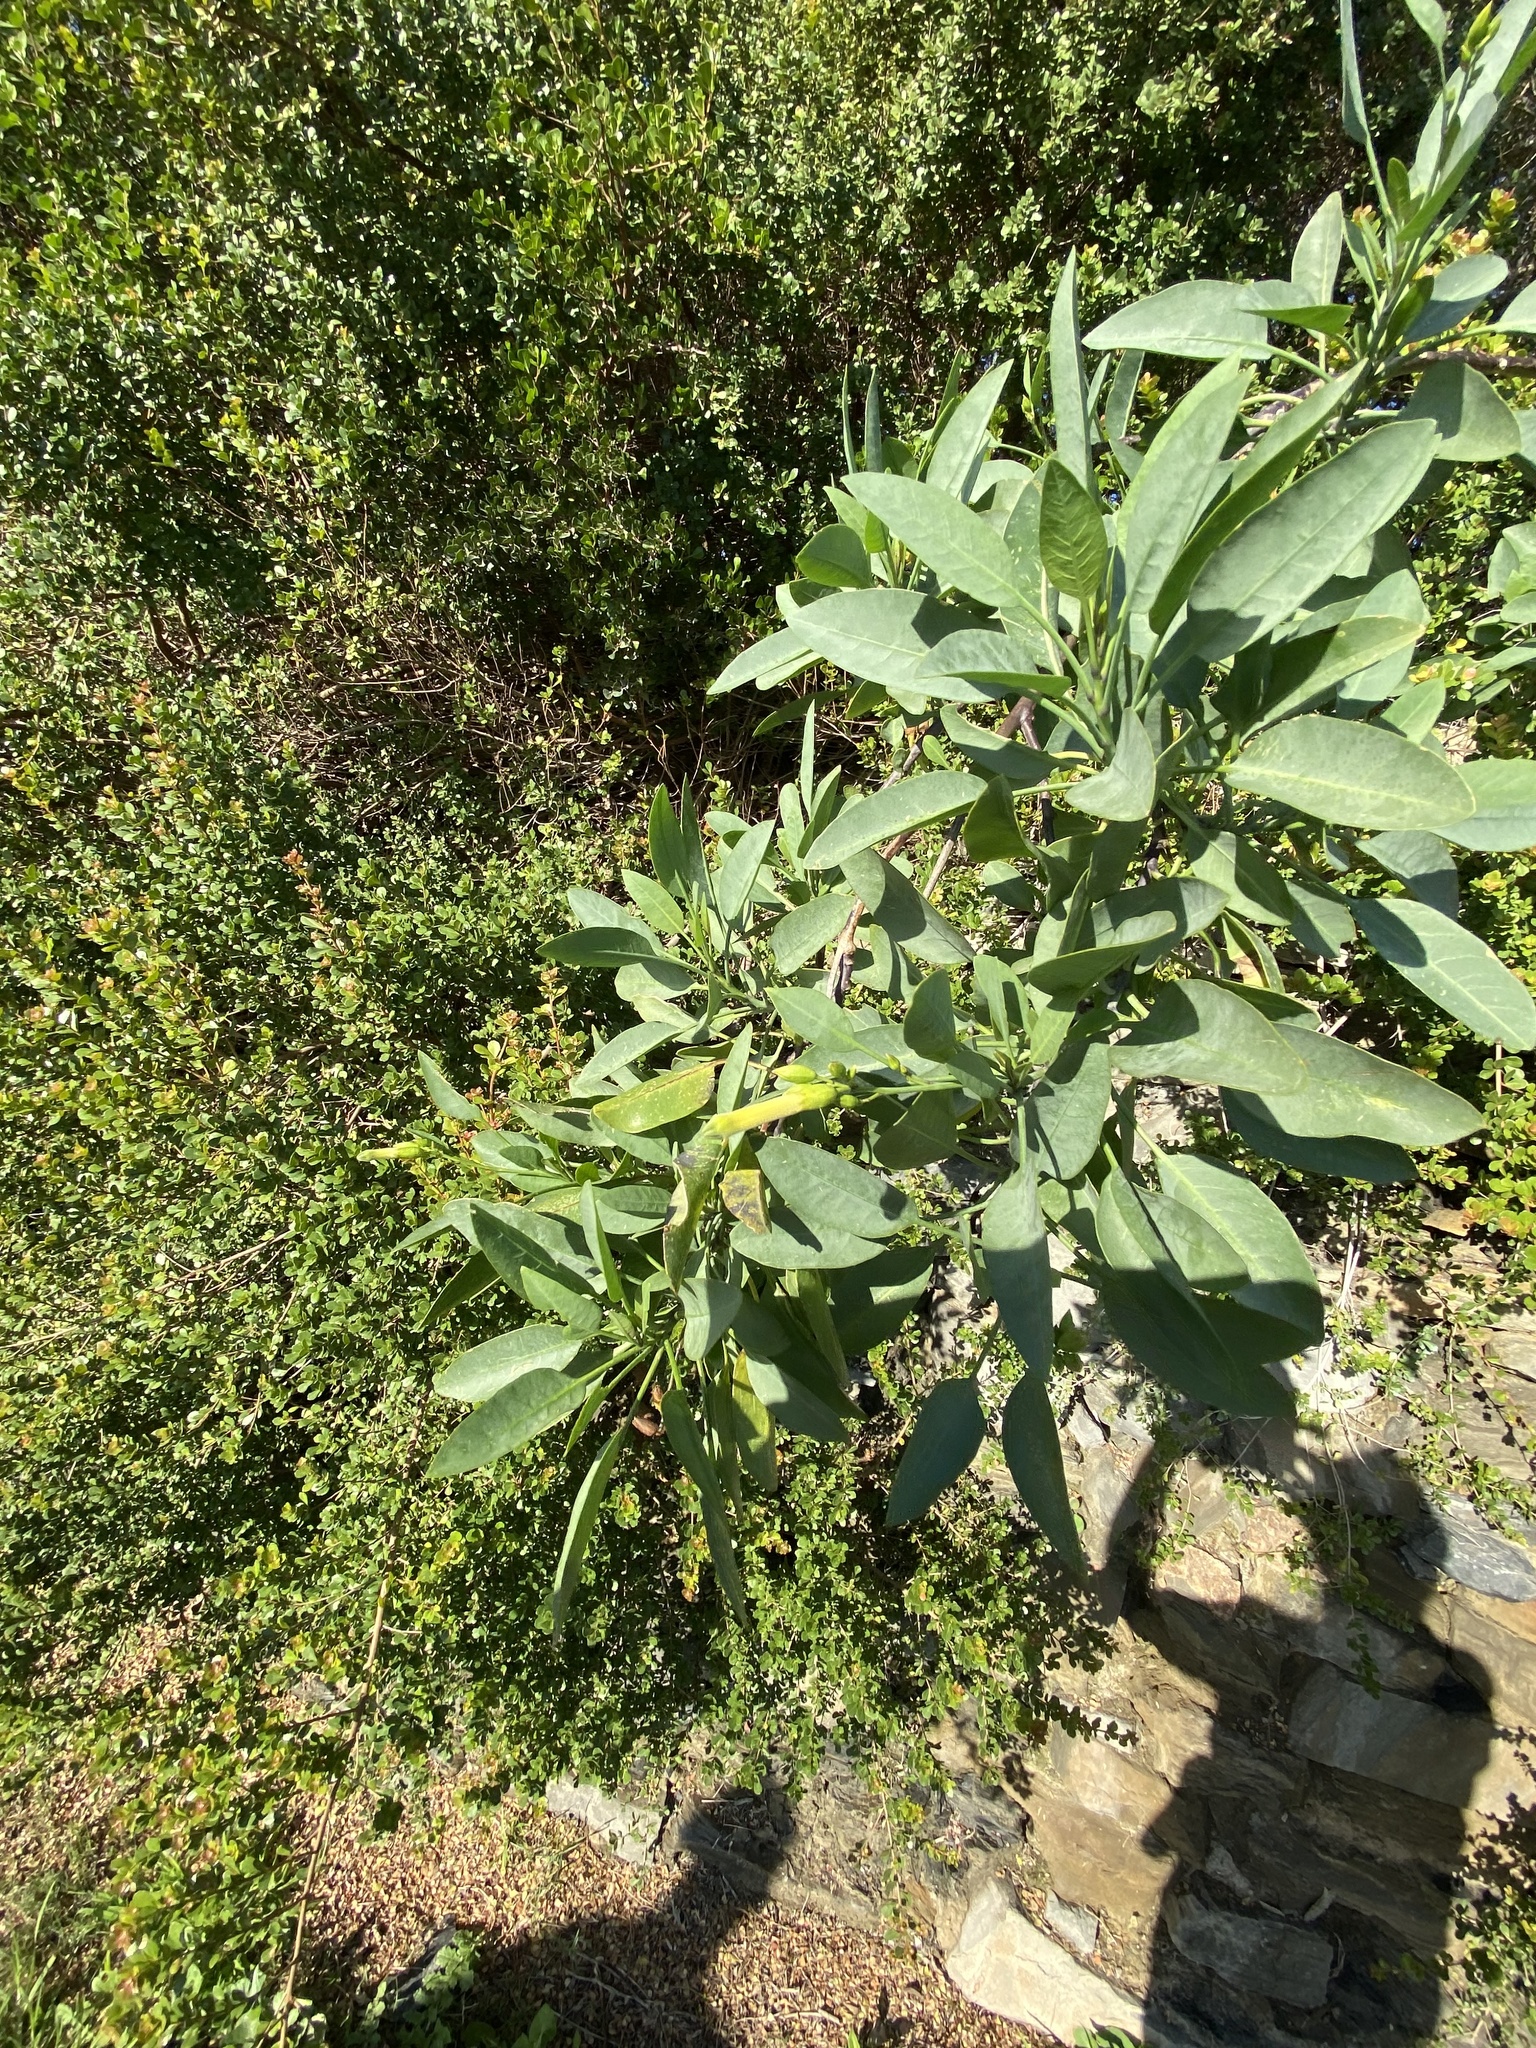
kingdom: Plantae
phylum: Tracheophyta
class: Magnoliopsida
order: Solanales
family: Solanaceae
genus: Nicotiana
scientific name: Nicotiana glauca
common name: Tree tobacco
